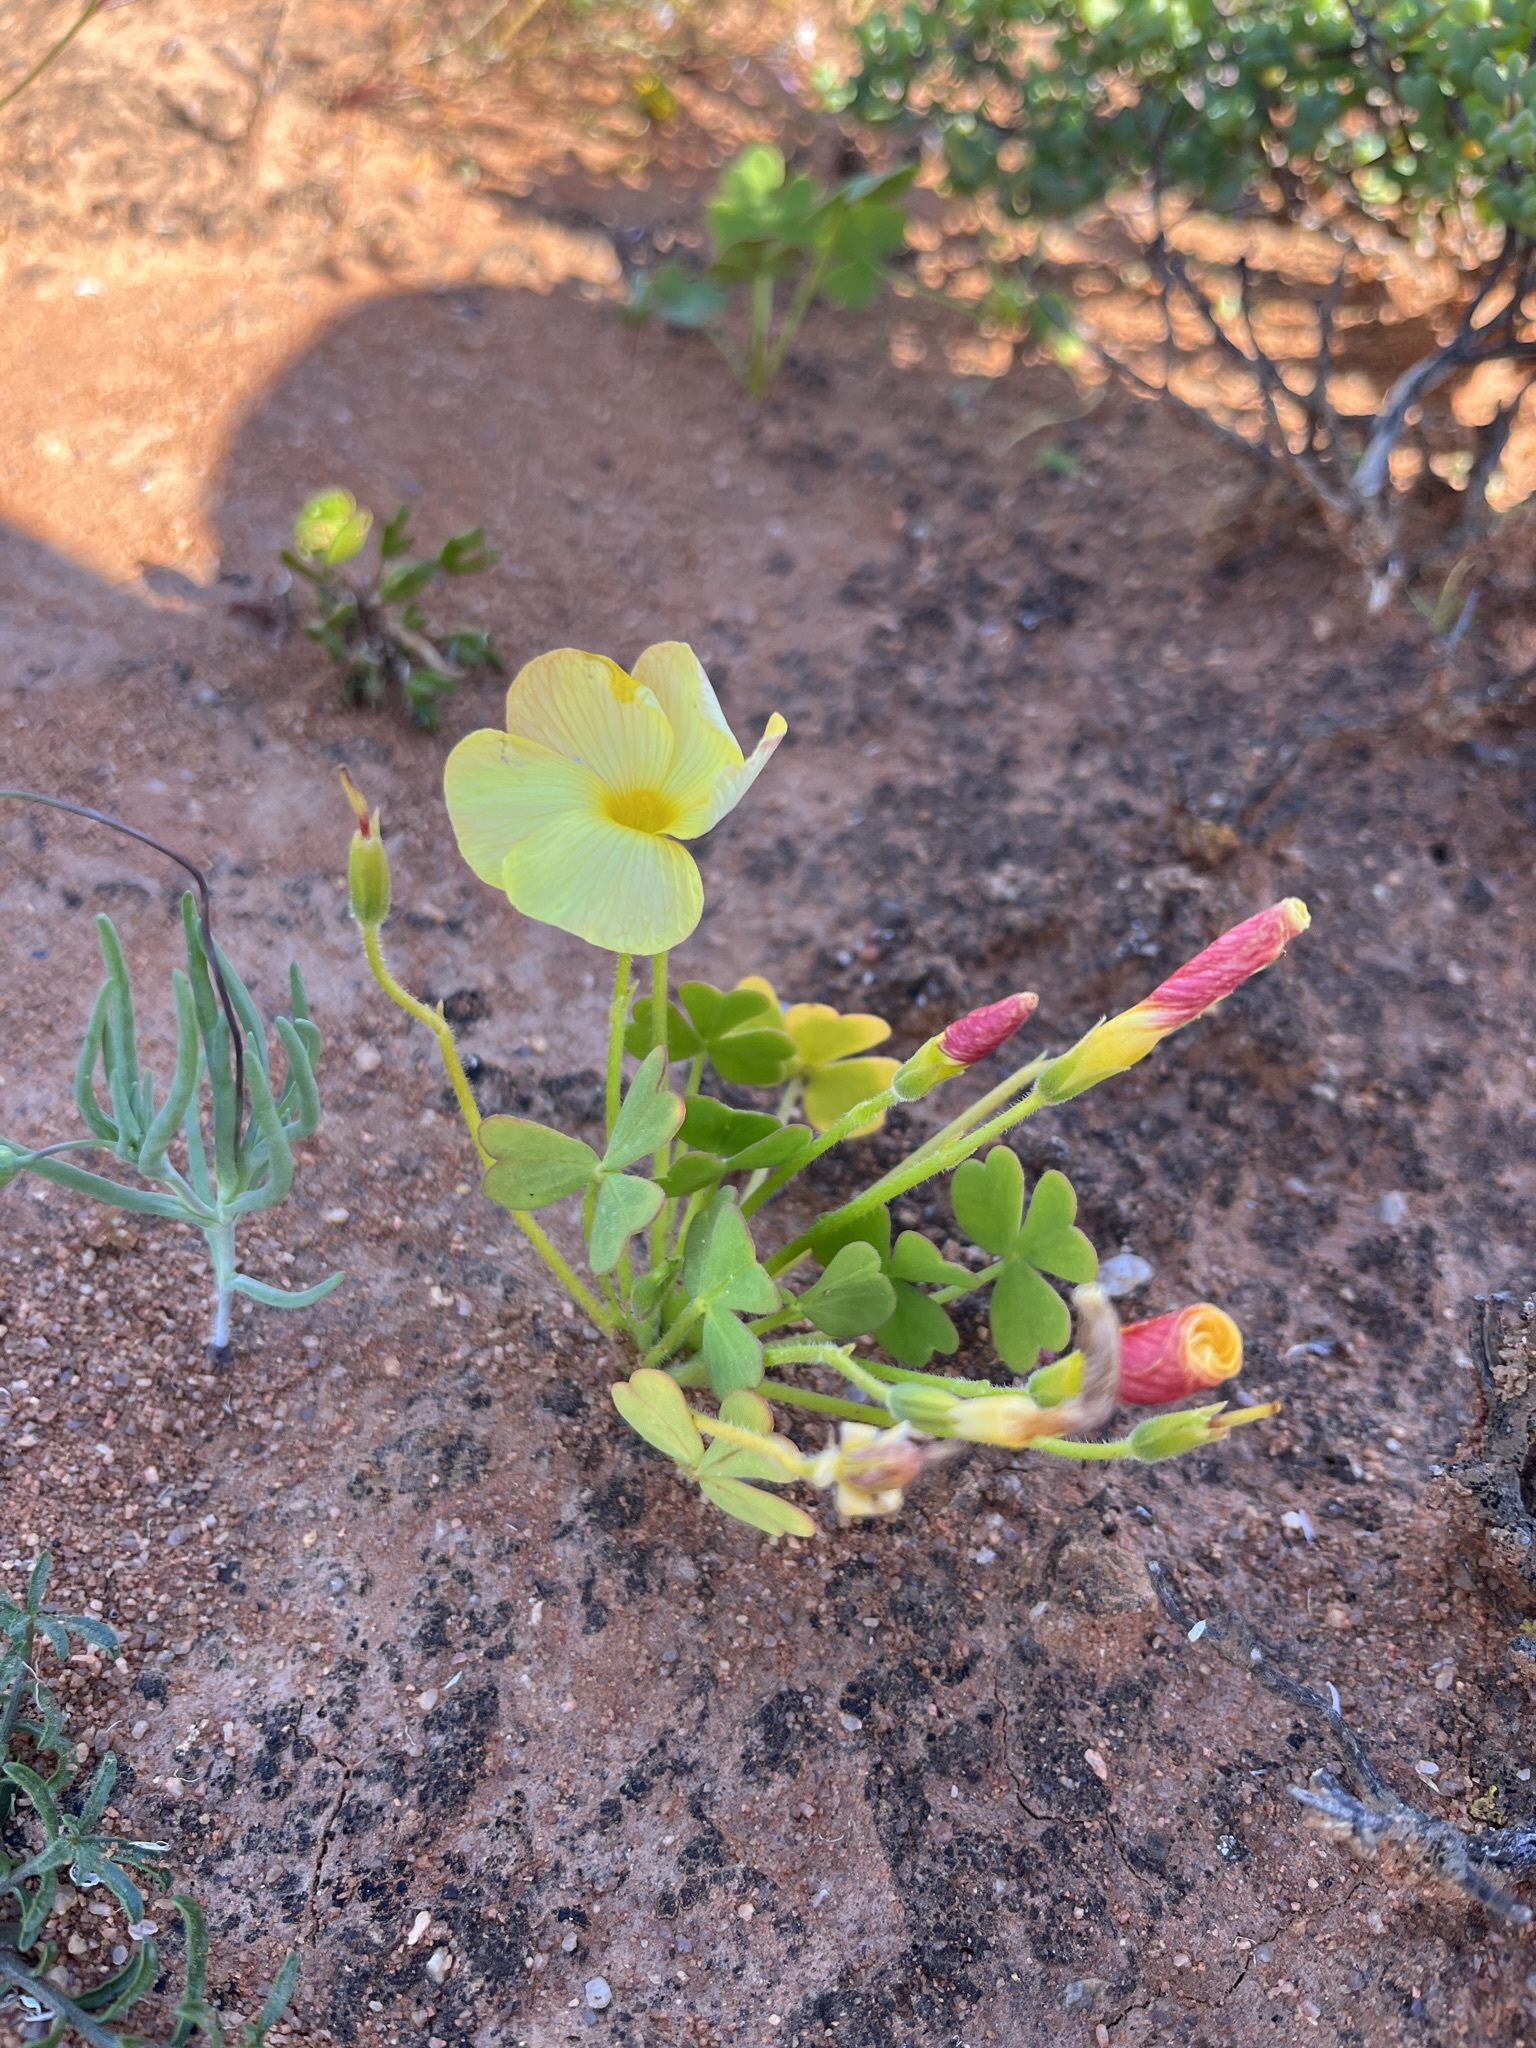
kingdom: Plantae
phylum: Tracheophyta
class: Magnoliopsida
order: Oxalidales
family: Oxalidaceae
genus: Oxalis
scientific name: Oxalis obtusa
